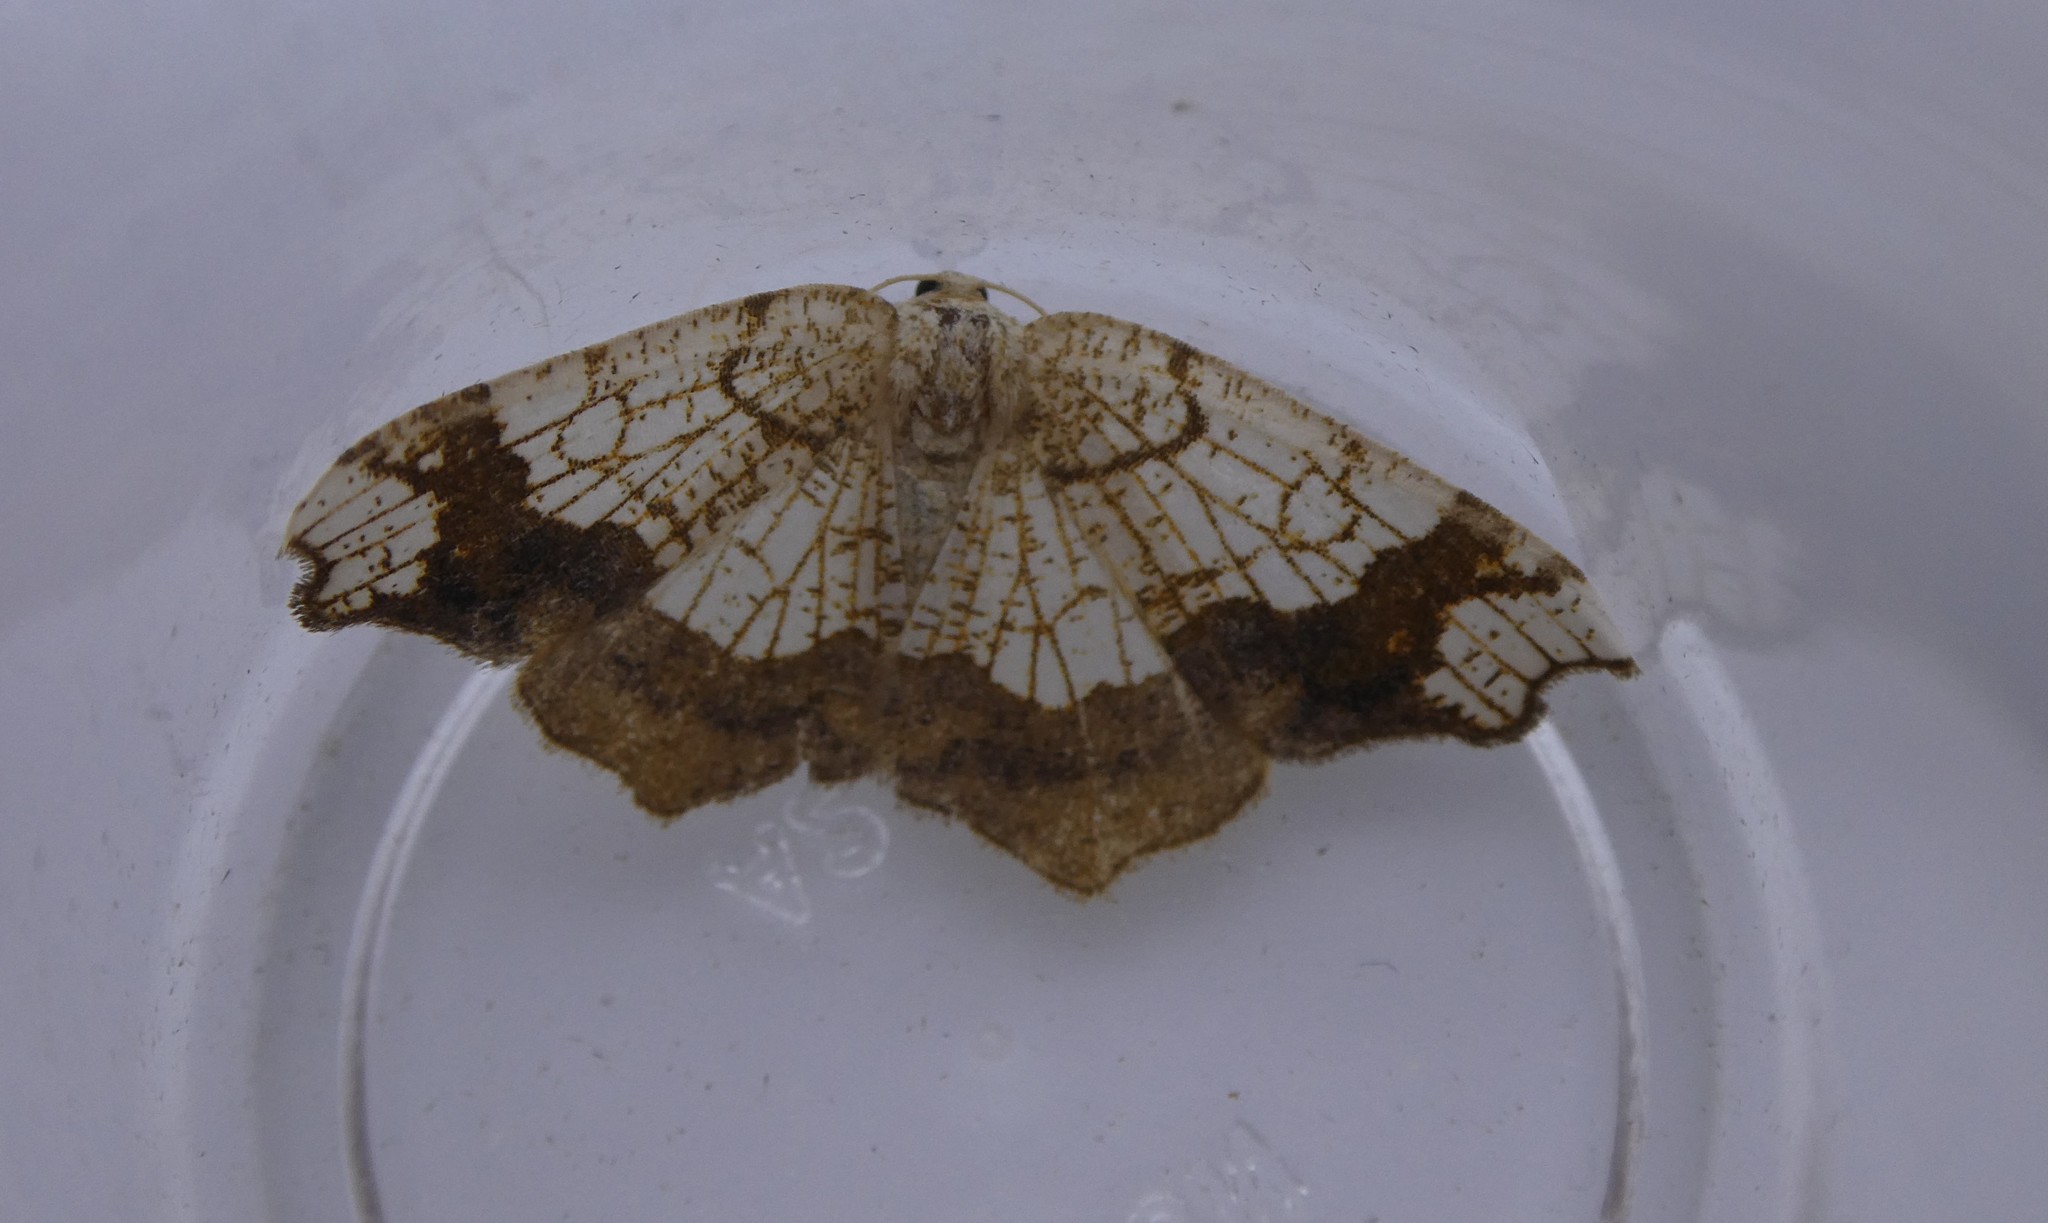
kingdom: Animalia
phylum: Arthropoda
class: Insecta
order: Lepidoptera
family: Geometridae
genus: Nematocampa
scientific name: Nematocampa resistaria
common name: Horned spanworm moth
